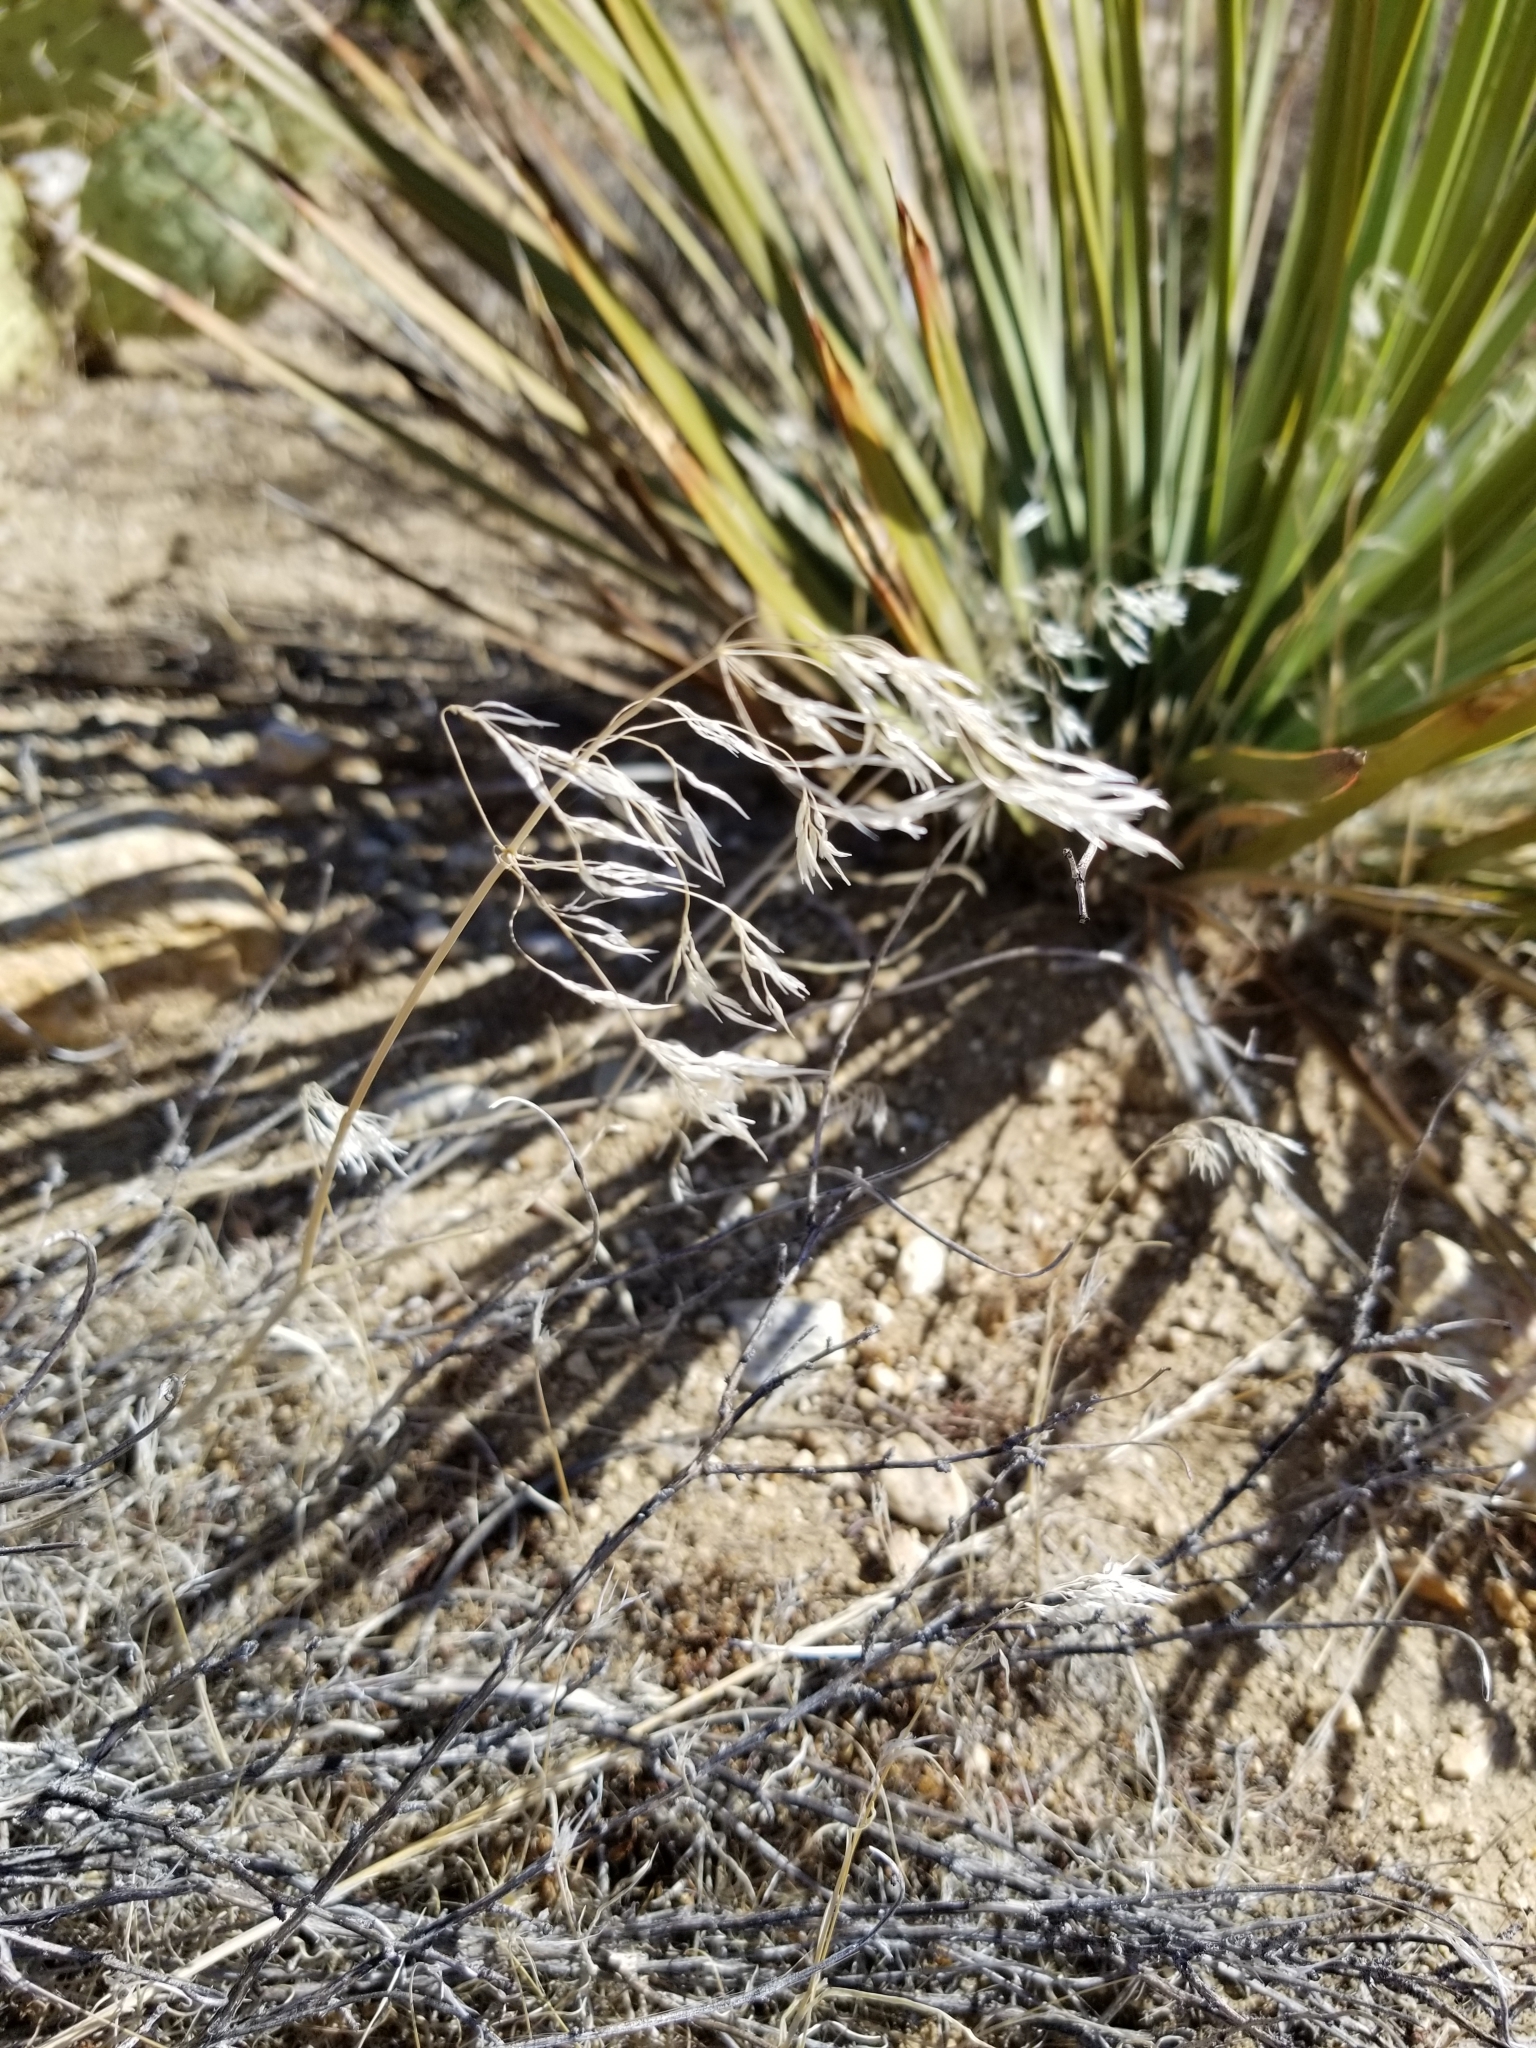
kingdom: Plantae
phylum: Tracheophyta
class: Liliopsida
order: Poales
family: Poaceae
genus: Bromus
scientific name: Bromus tectorum
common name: Cheatgrass
